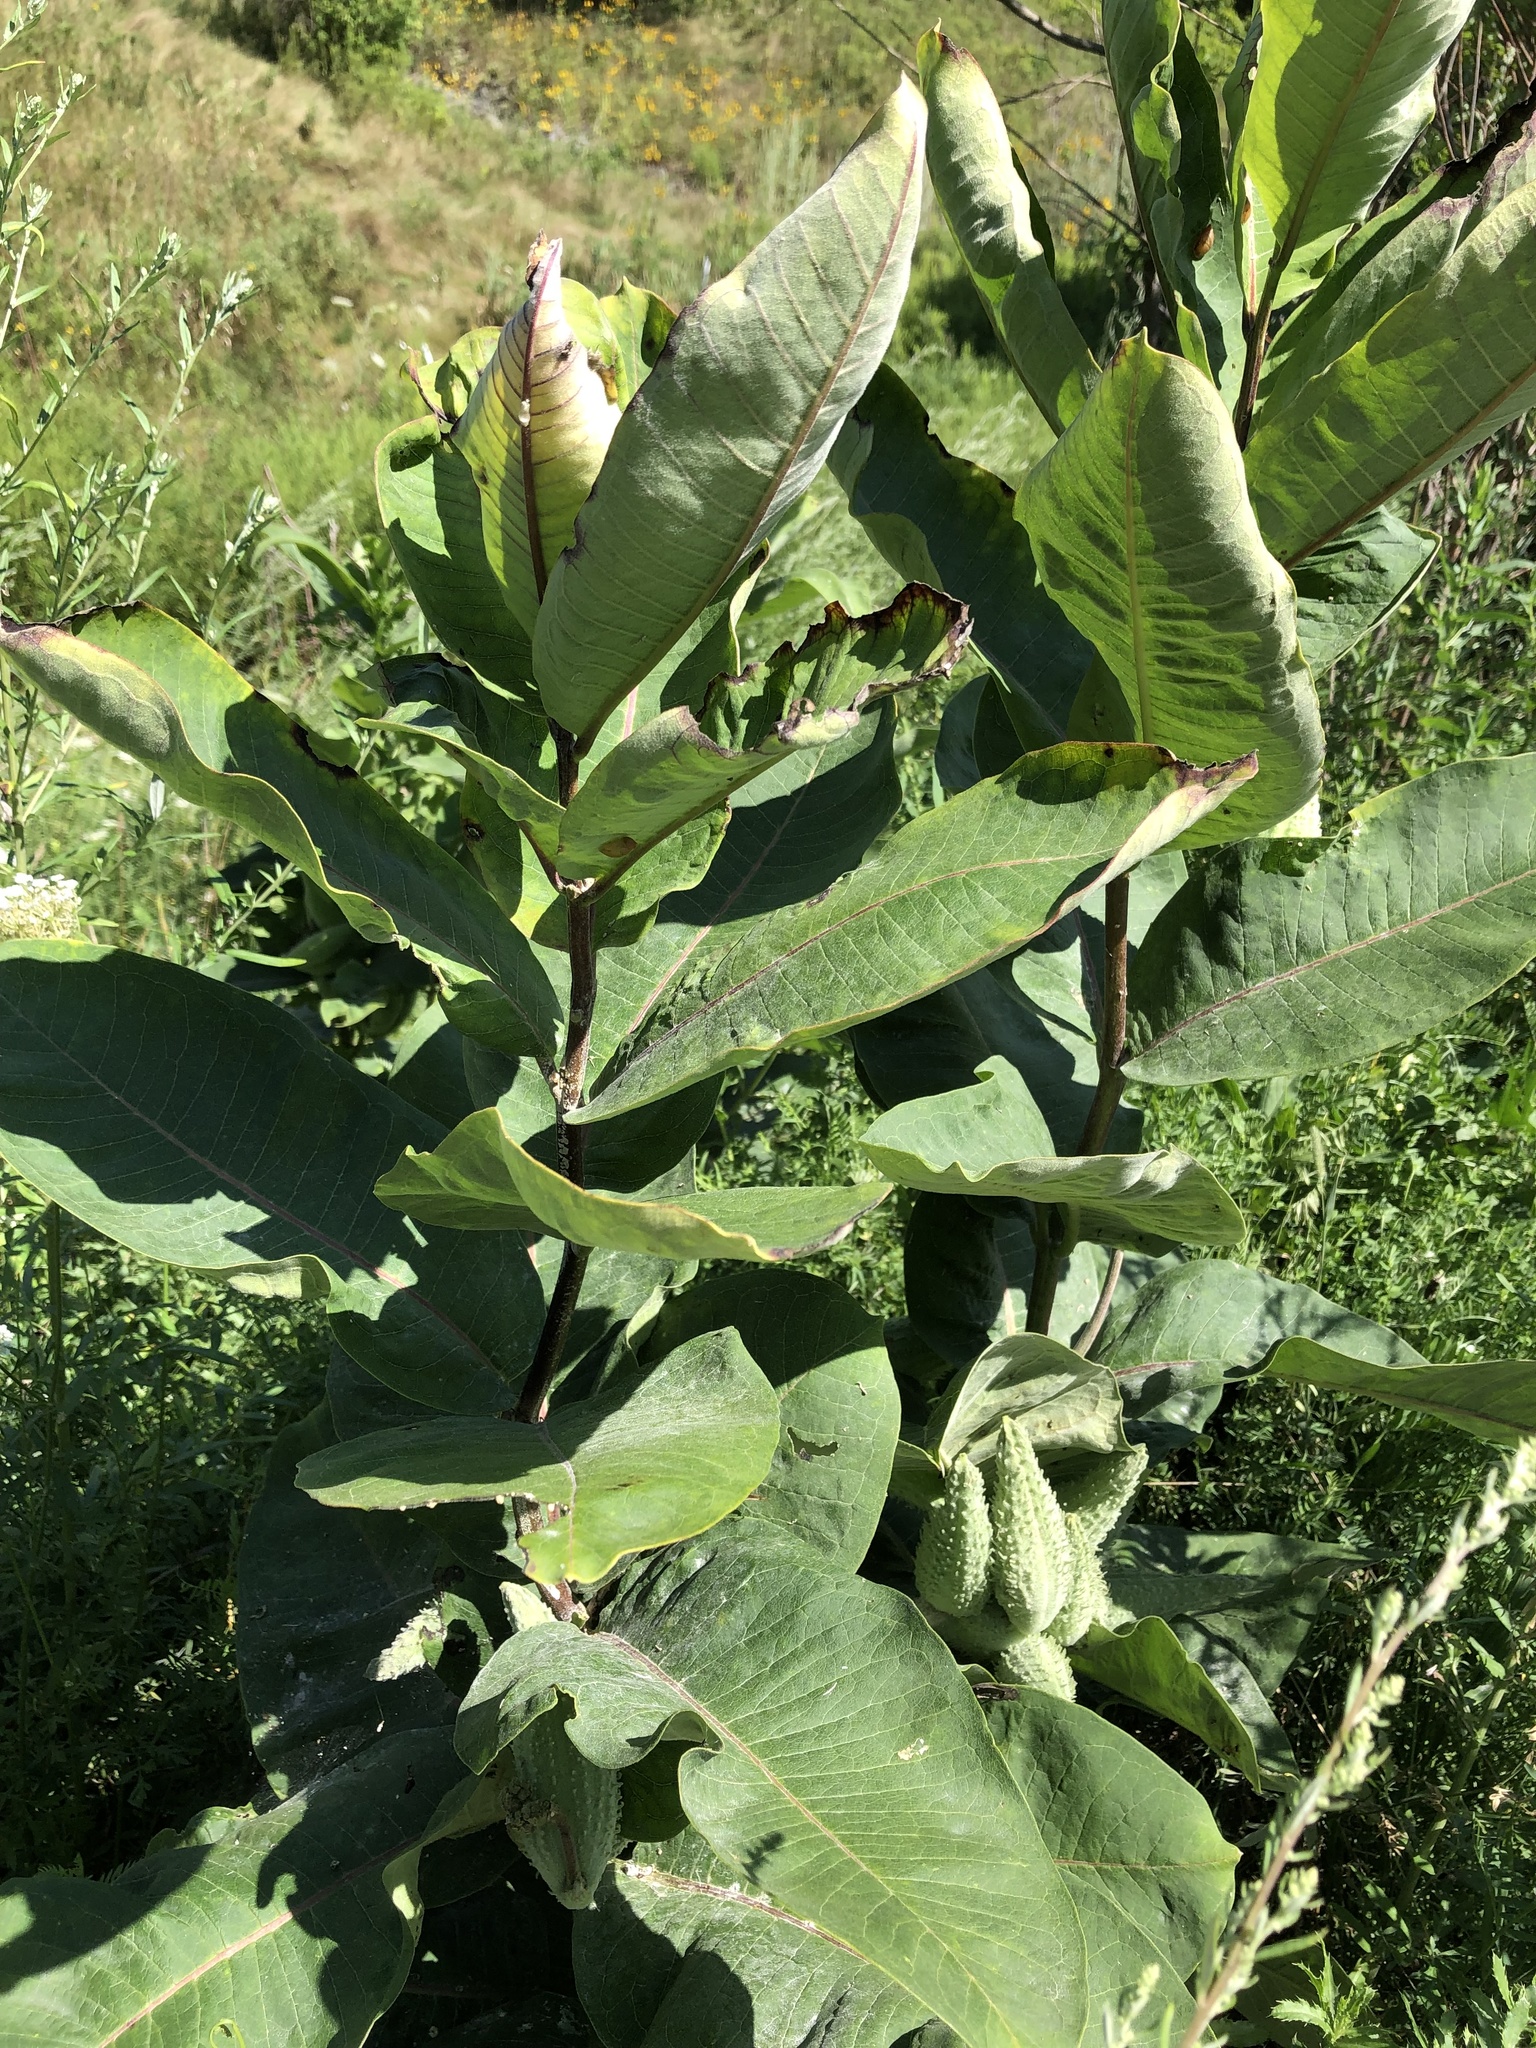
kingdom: Plantae
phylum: Tracheophyta
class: Magnoliopsida
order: Gentianales
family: Apocynaceae
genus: Asclepias
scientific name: Asclepias syriaca
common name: Common milkweed
